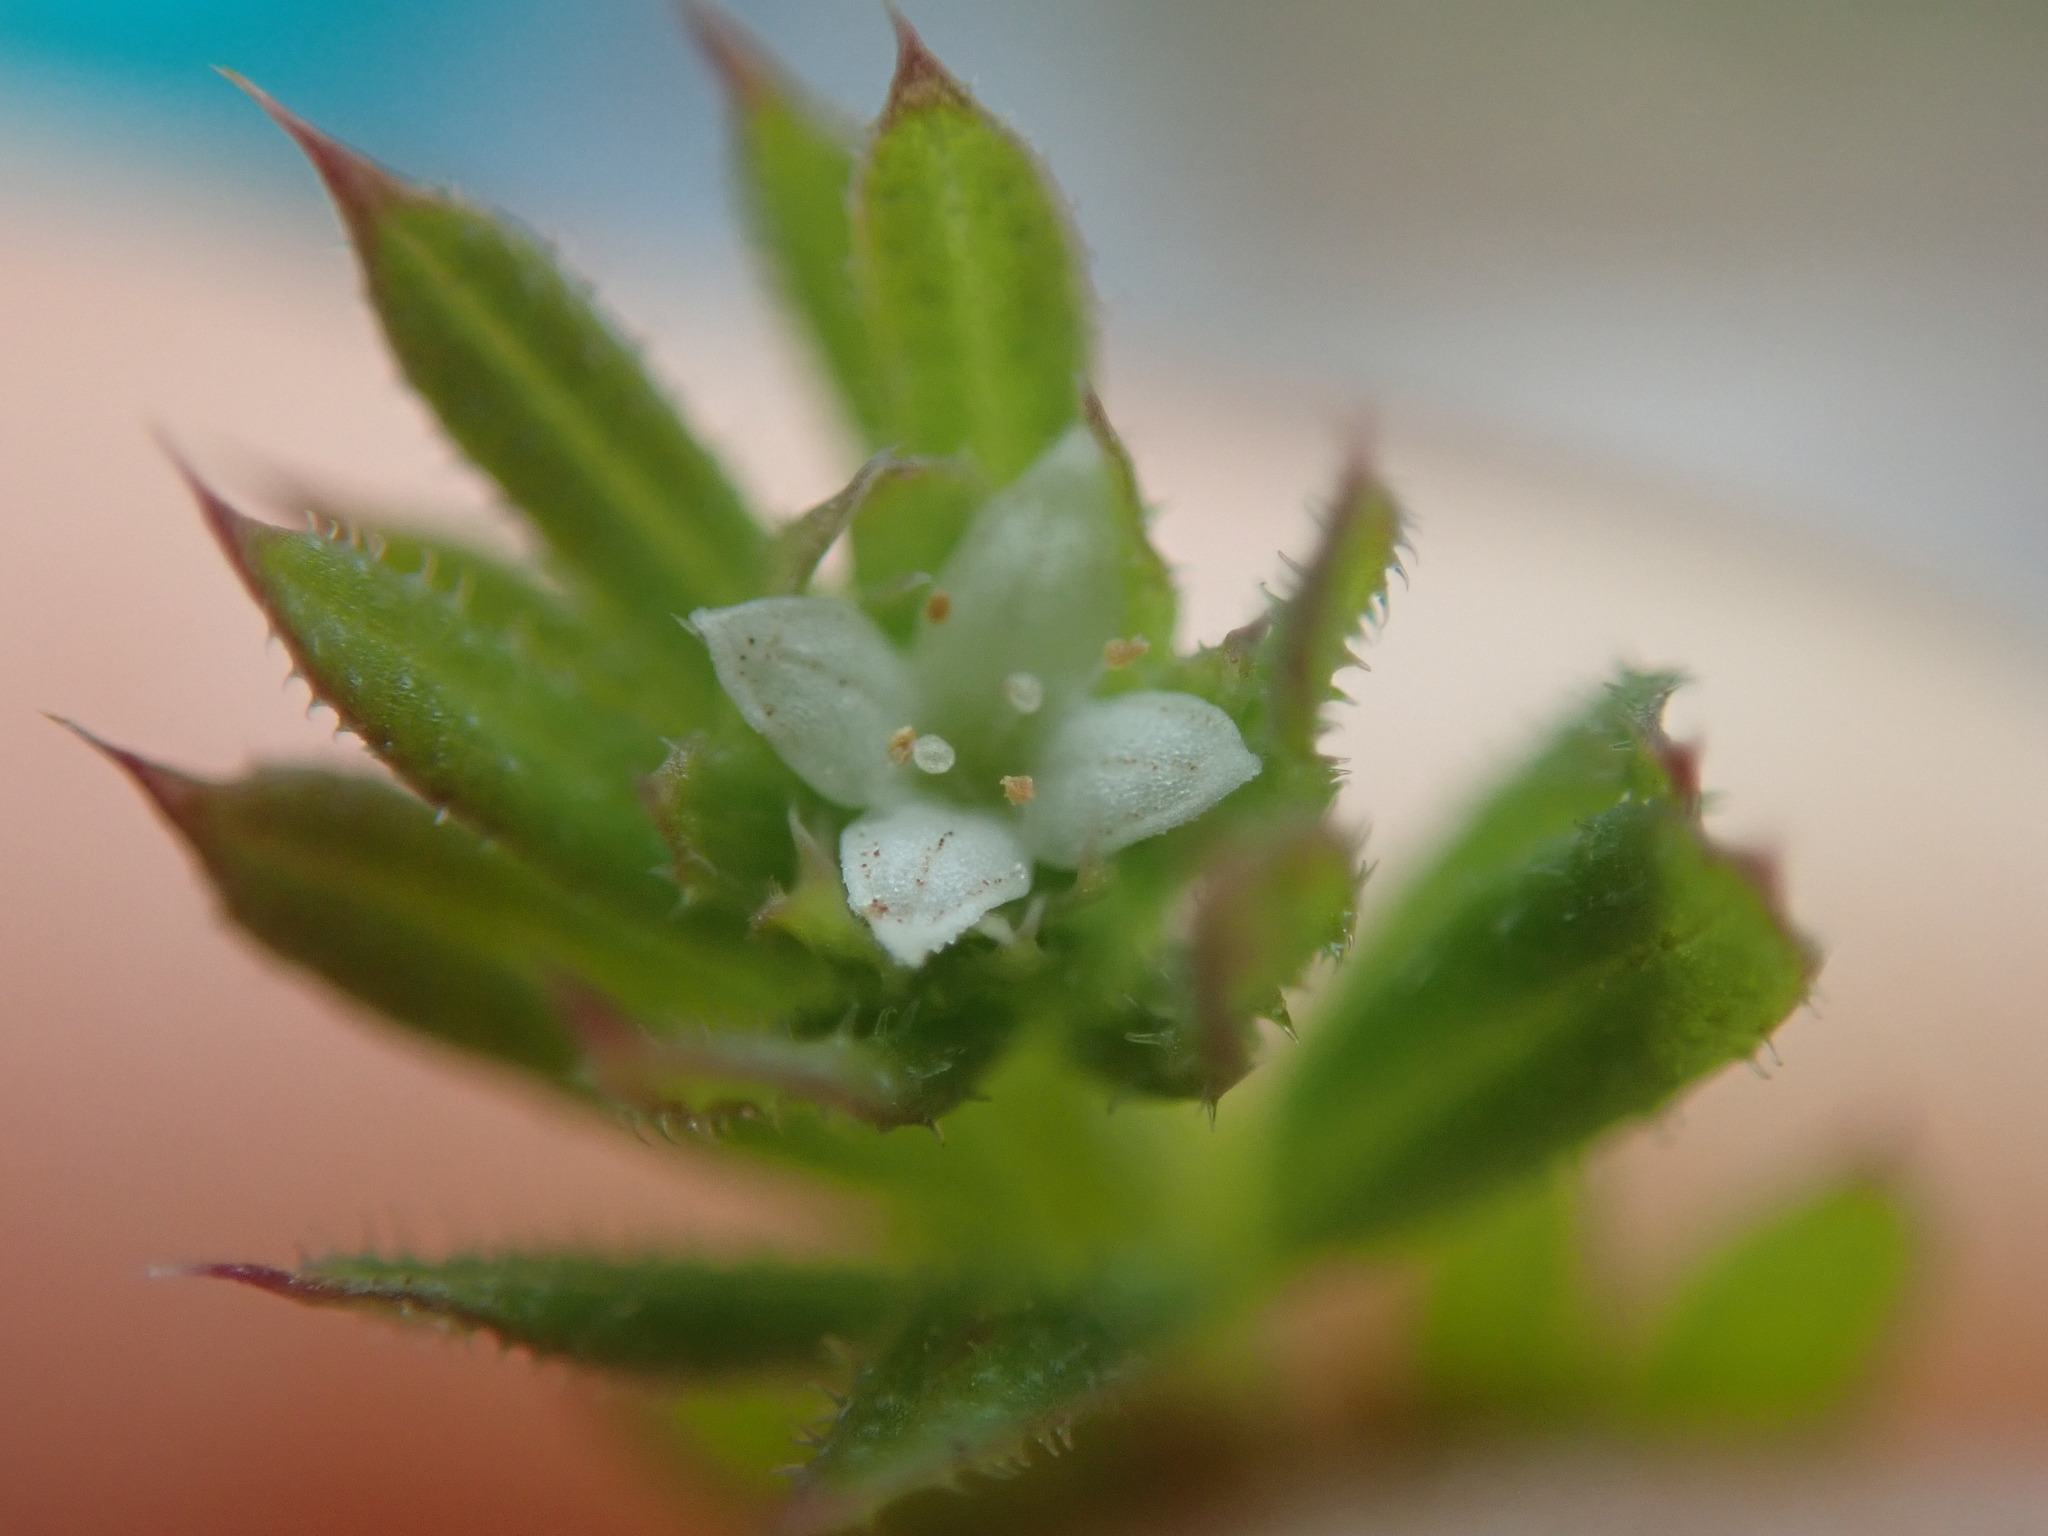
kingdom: Plantae
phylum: Tracheophyta
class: Magnoliopsida
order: Gentianales
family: Rubiaceae
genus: Galium
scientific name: Galium aparine
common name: Cleavers
